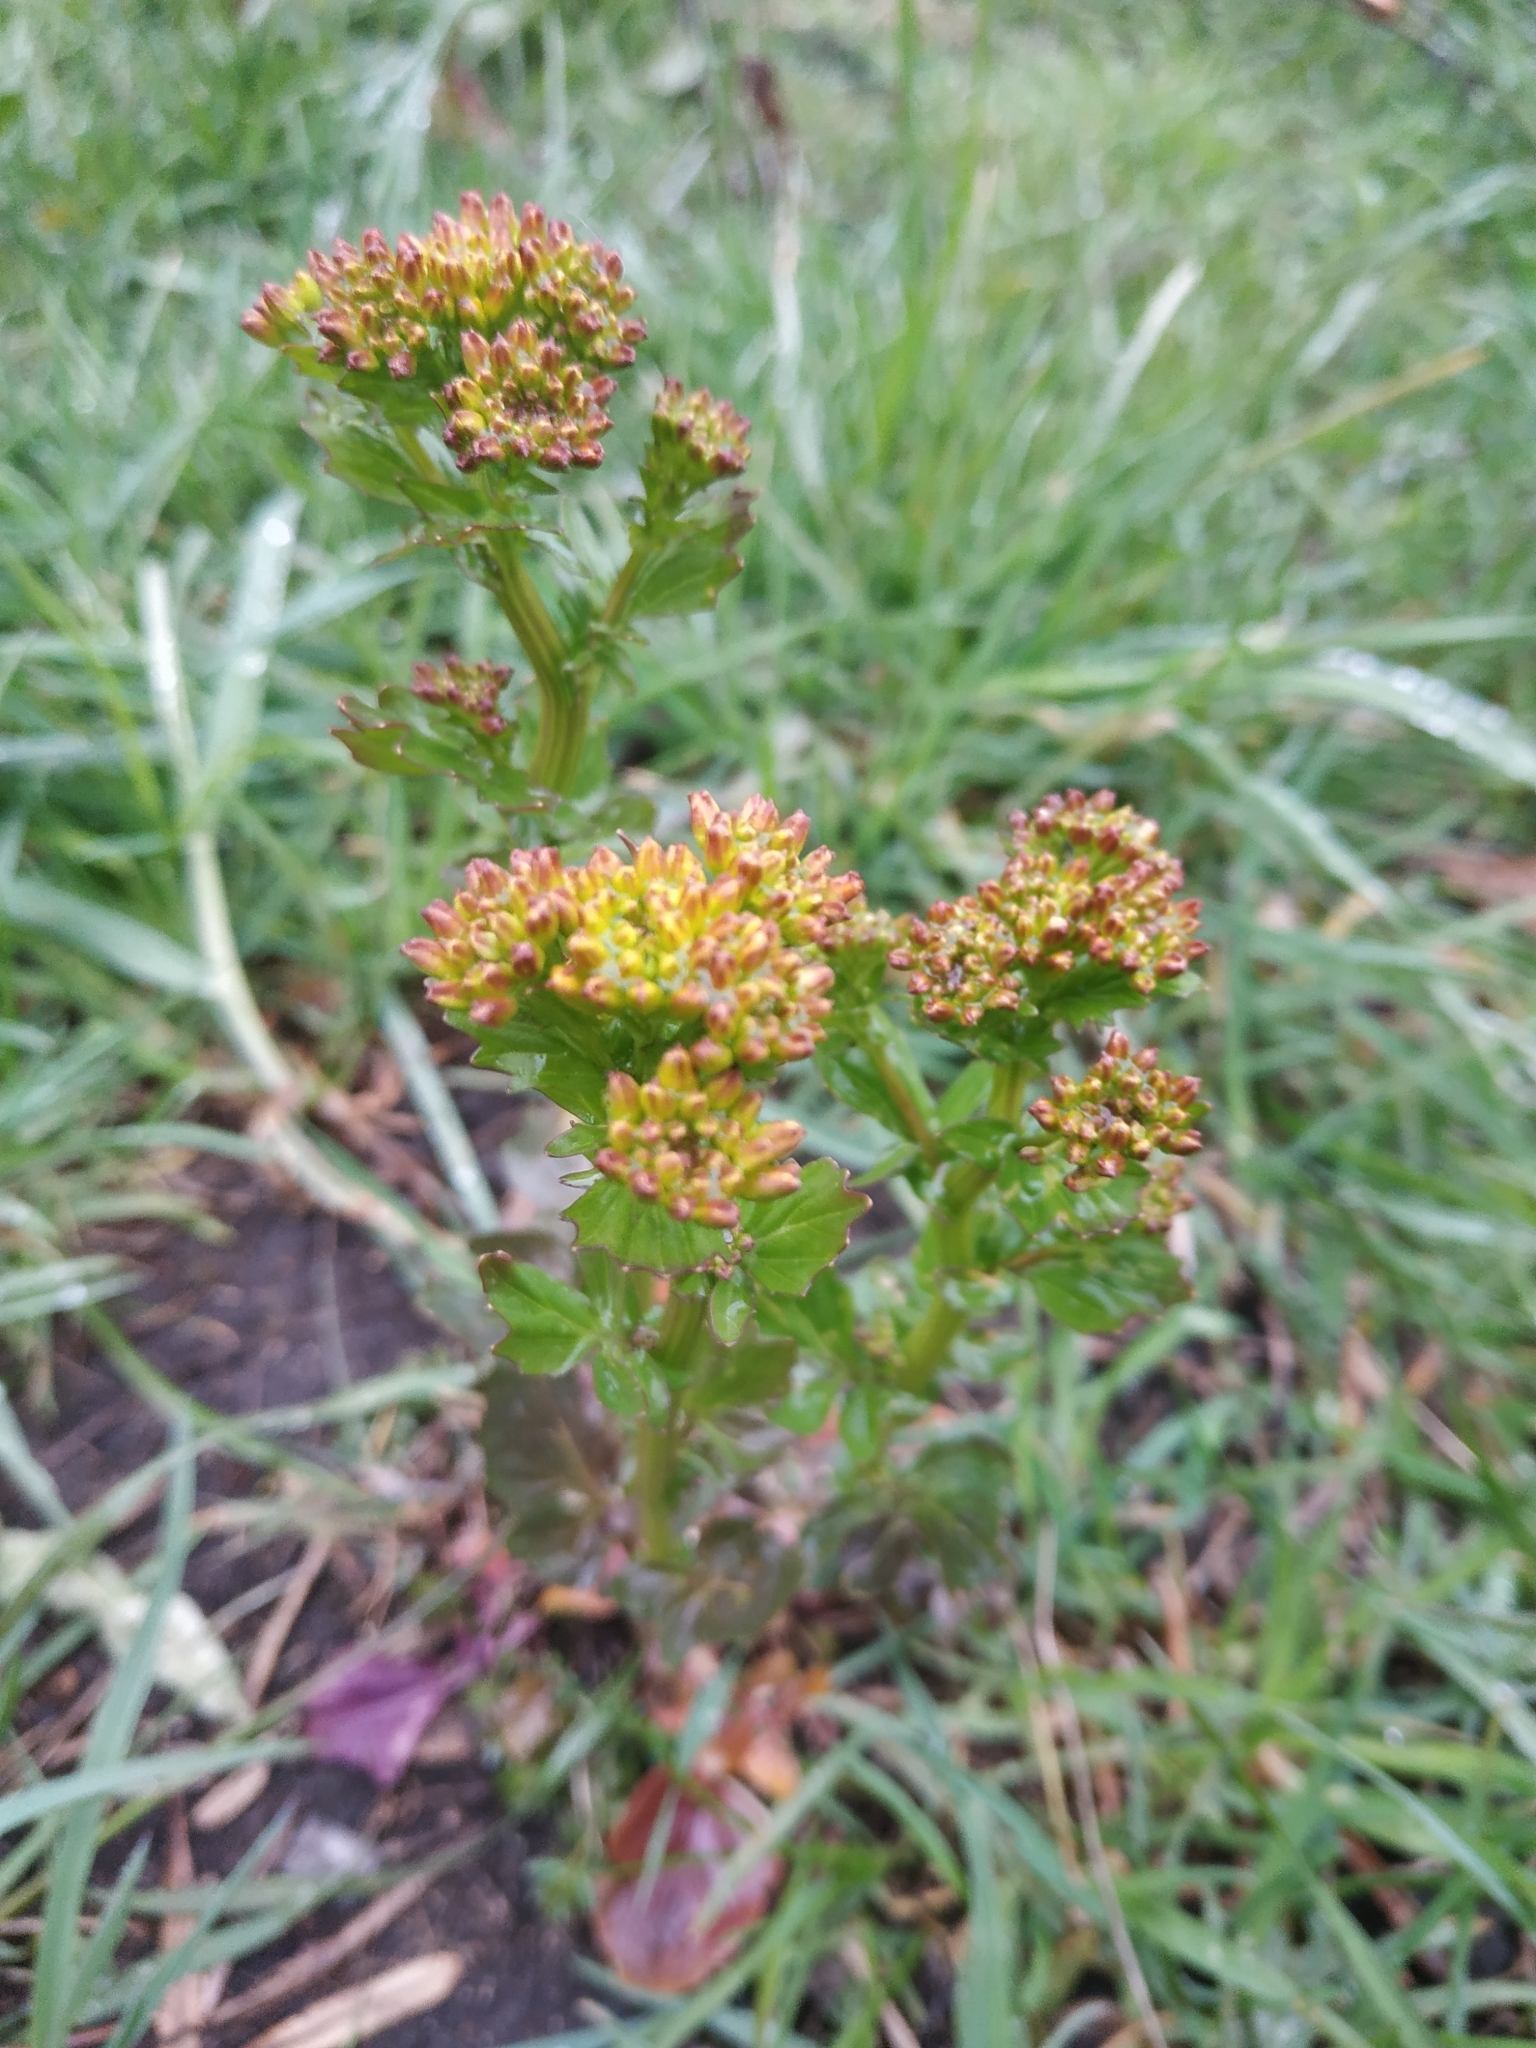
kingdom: Plantae
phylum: Tracheophyta
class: Magnoliopsida
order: Brassicales
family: Brassicaceae
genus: Barbarea
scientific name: Barbarea vulgaris
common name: Cressy-greens
